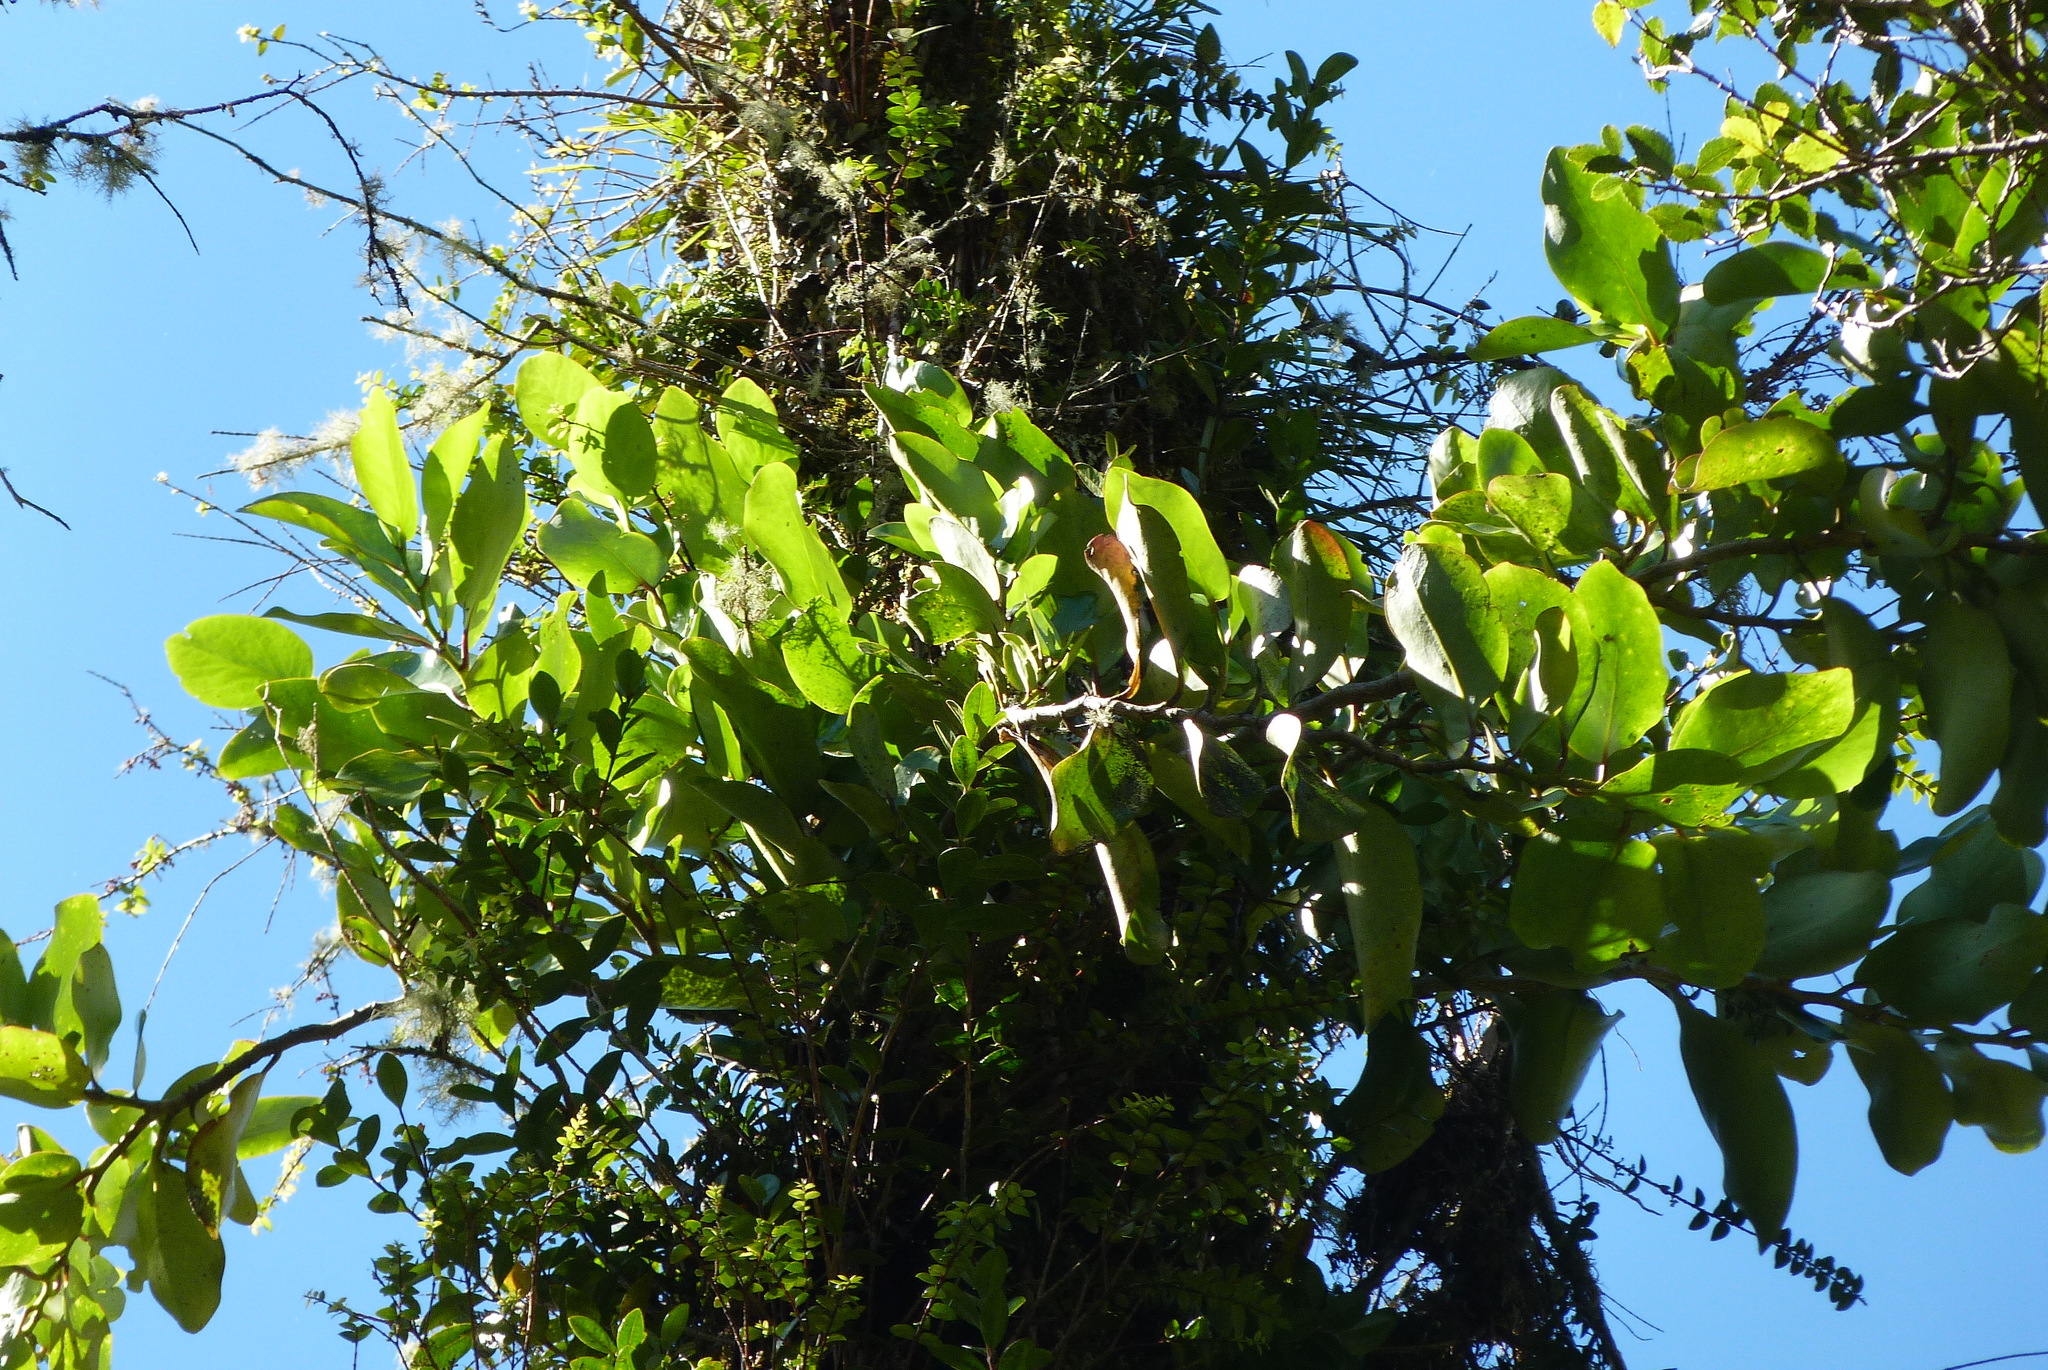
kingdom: Plantae
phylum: Tracheophyta
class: Magnoliopsida
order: Apiales
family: Griseliniaceae
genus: Griselinia
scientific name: Griselinia lucida
